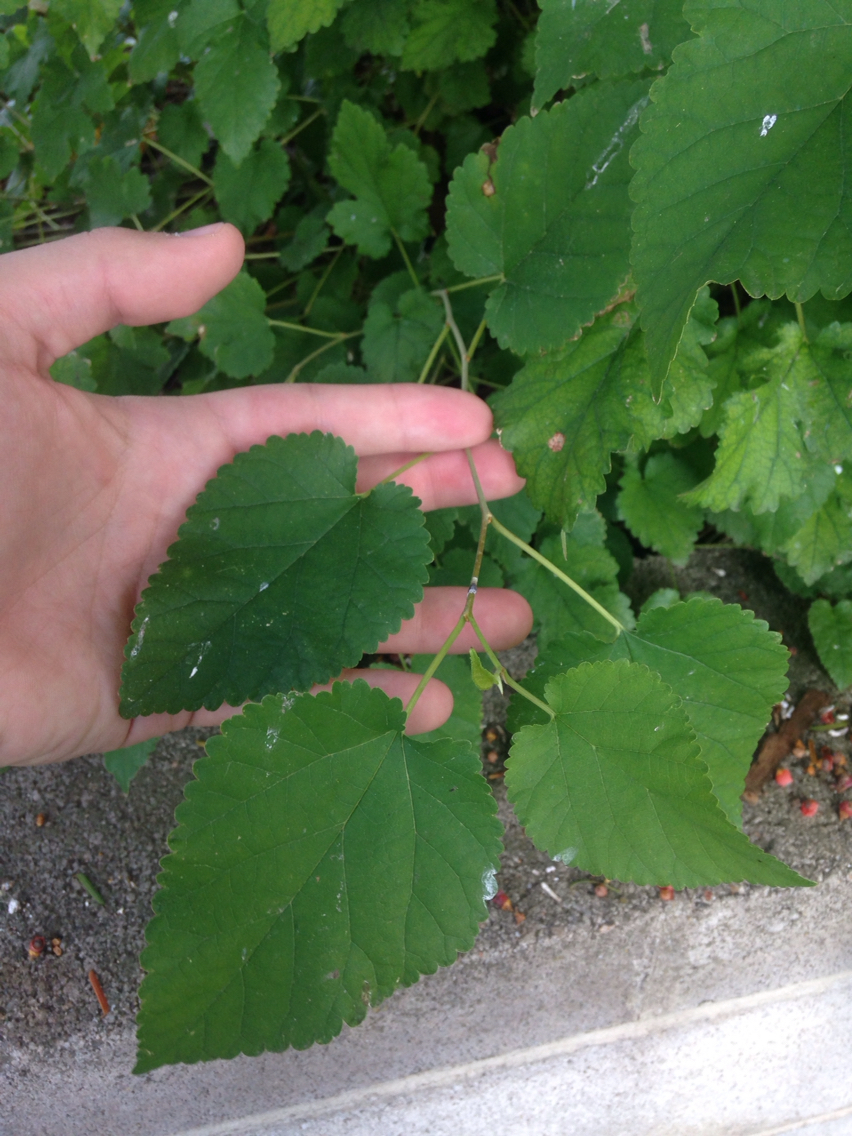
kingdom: Plantae
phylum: Tracheophyta
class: Magnoliopsida
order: Rosales
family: Moraceae
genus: Morus
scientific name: Morus alba
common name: White mulberry
